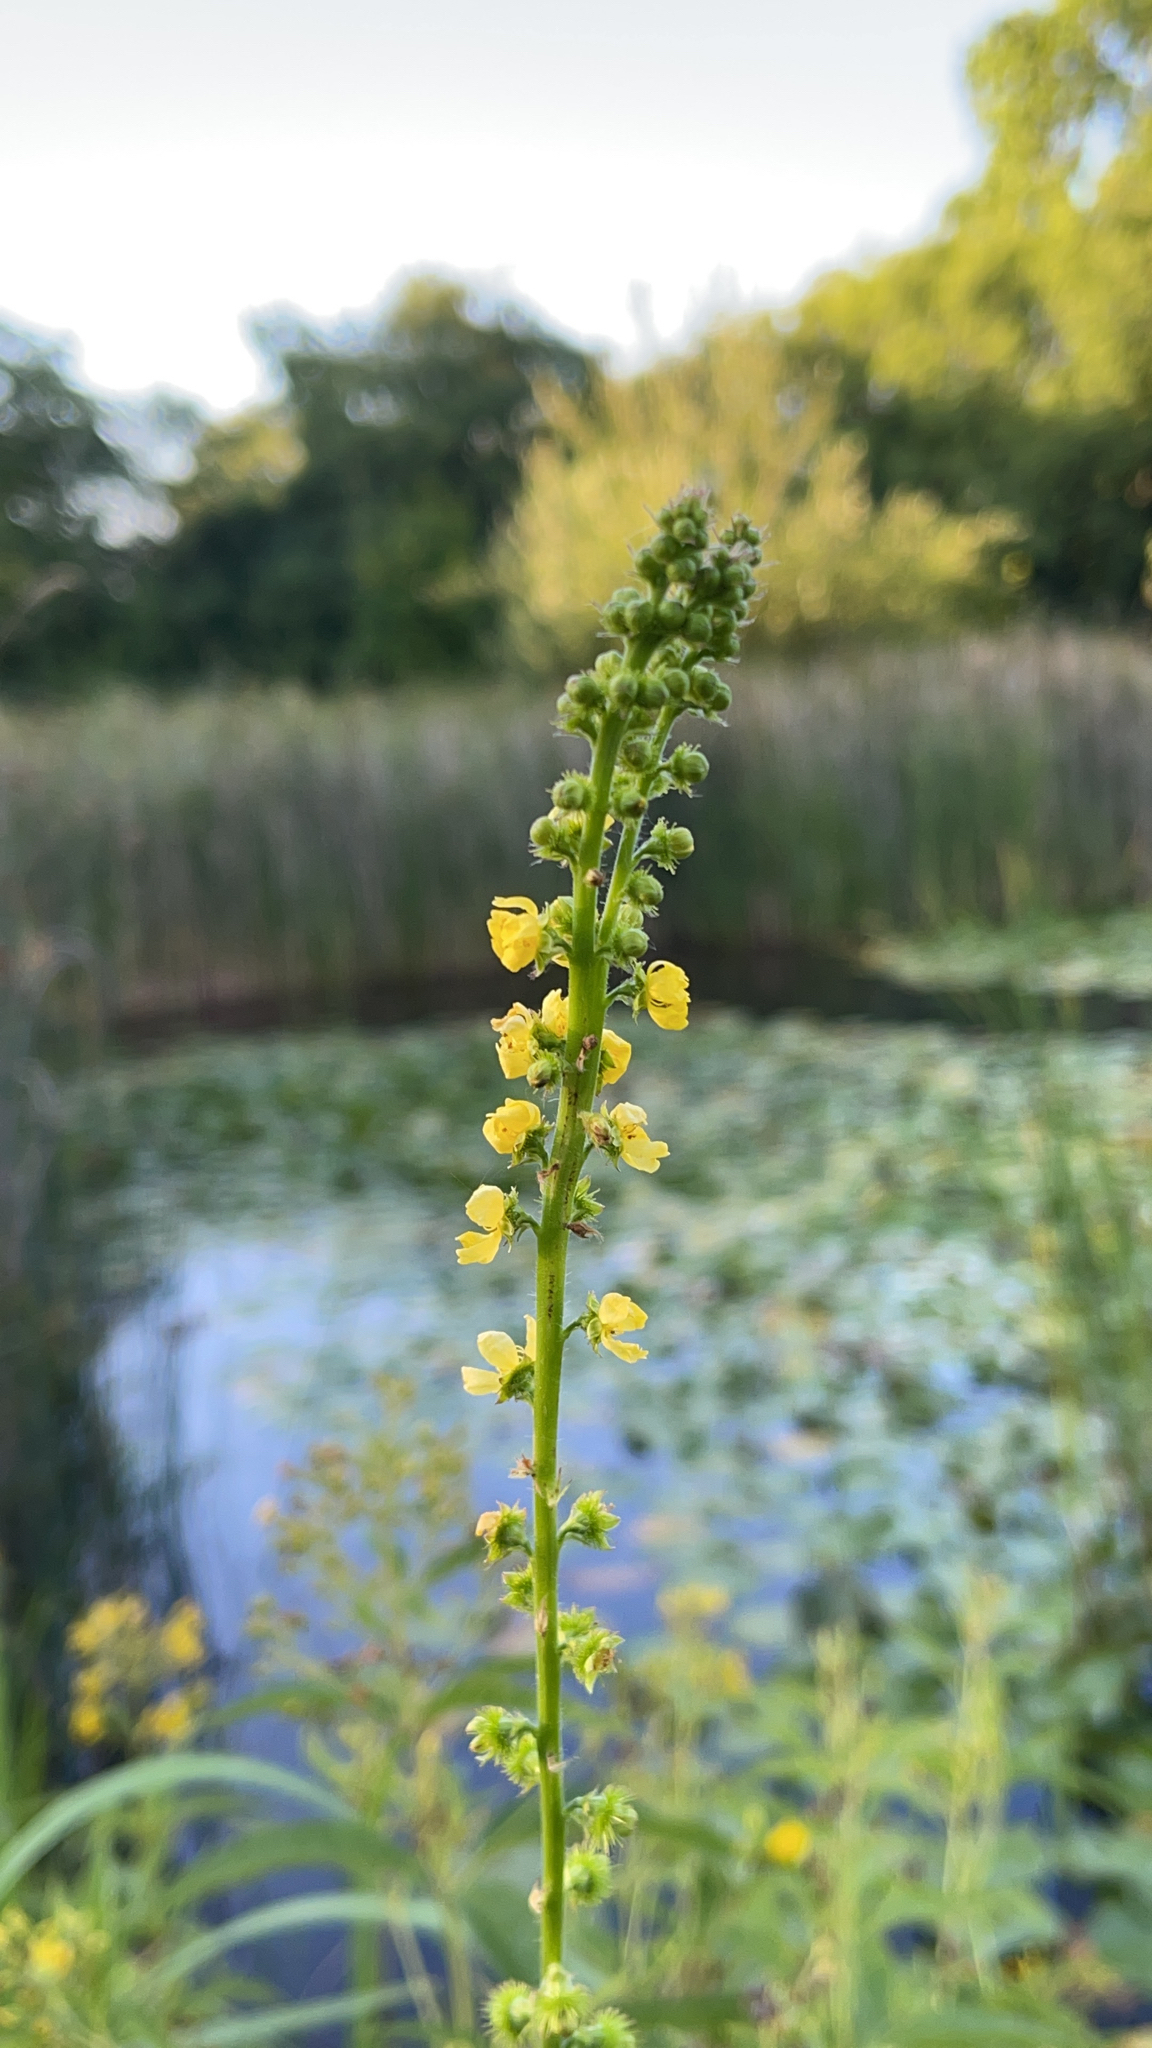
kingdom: Plantae
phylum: Tracheophyta
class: Magnoliopsida
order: Rosales
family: Rosaceae
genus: Agrimonia
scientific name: Agrimonia eupatoria
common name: Agrimony
